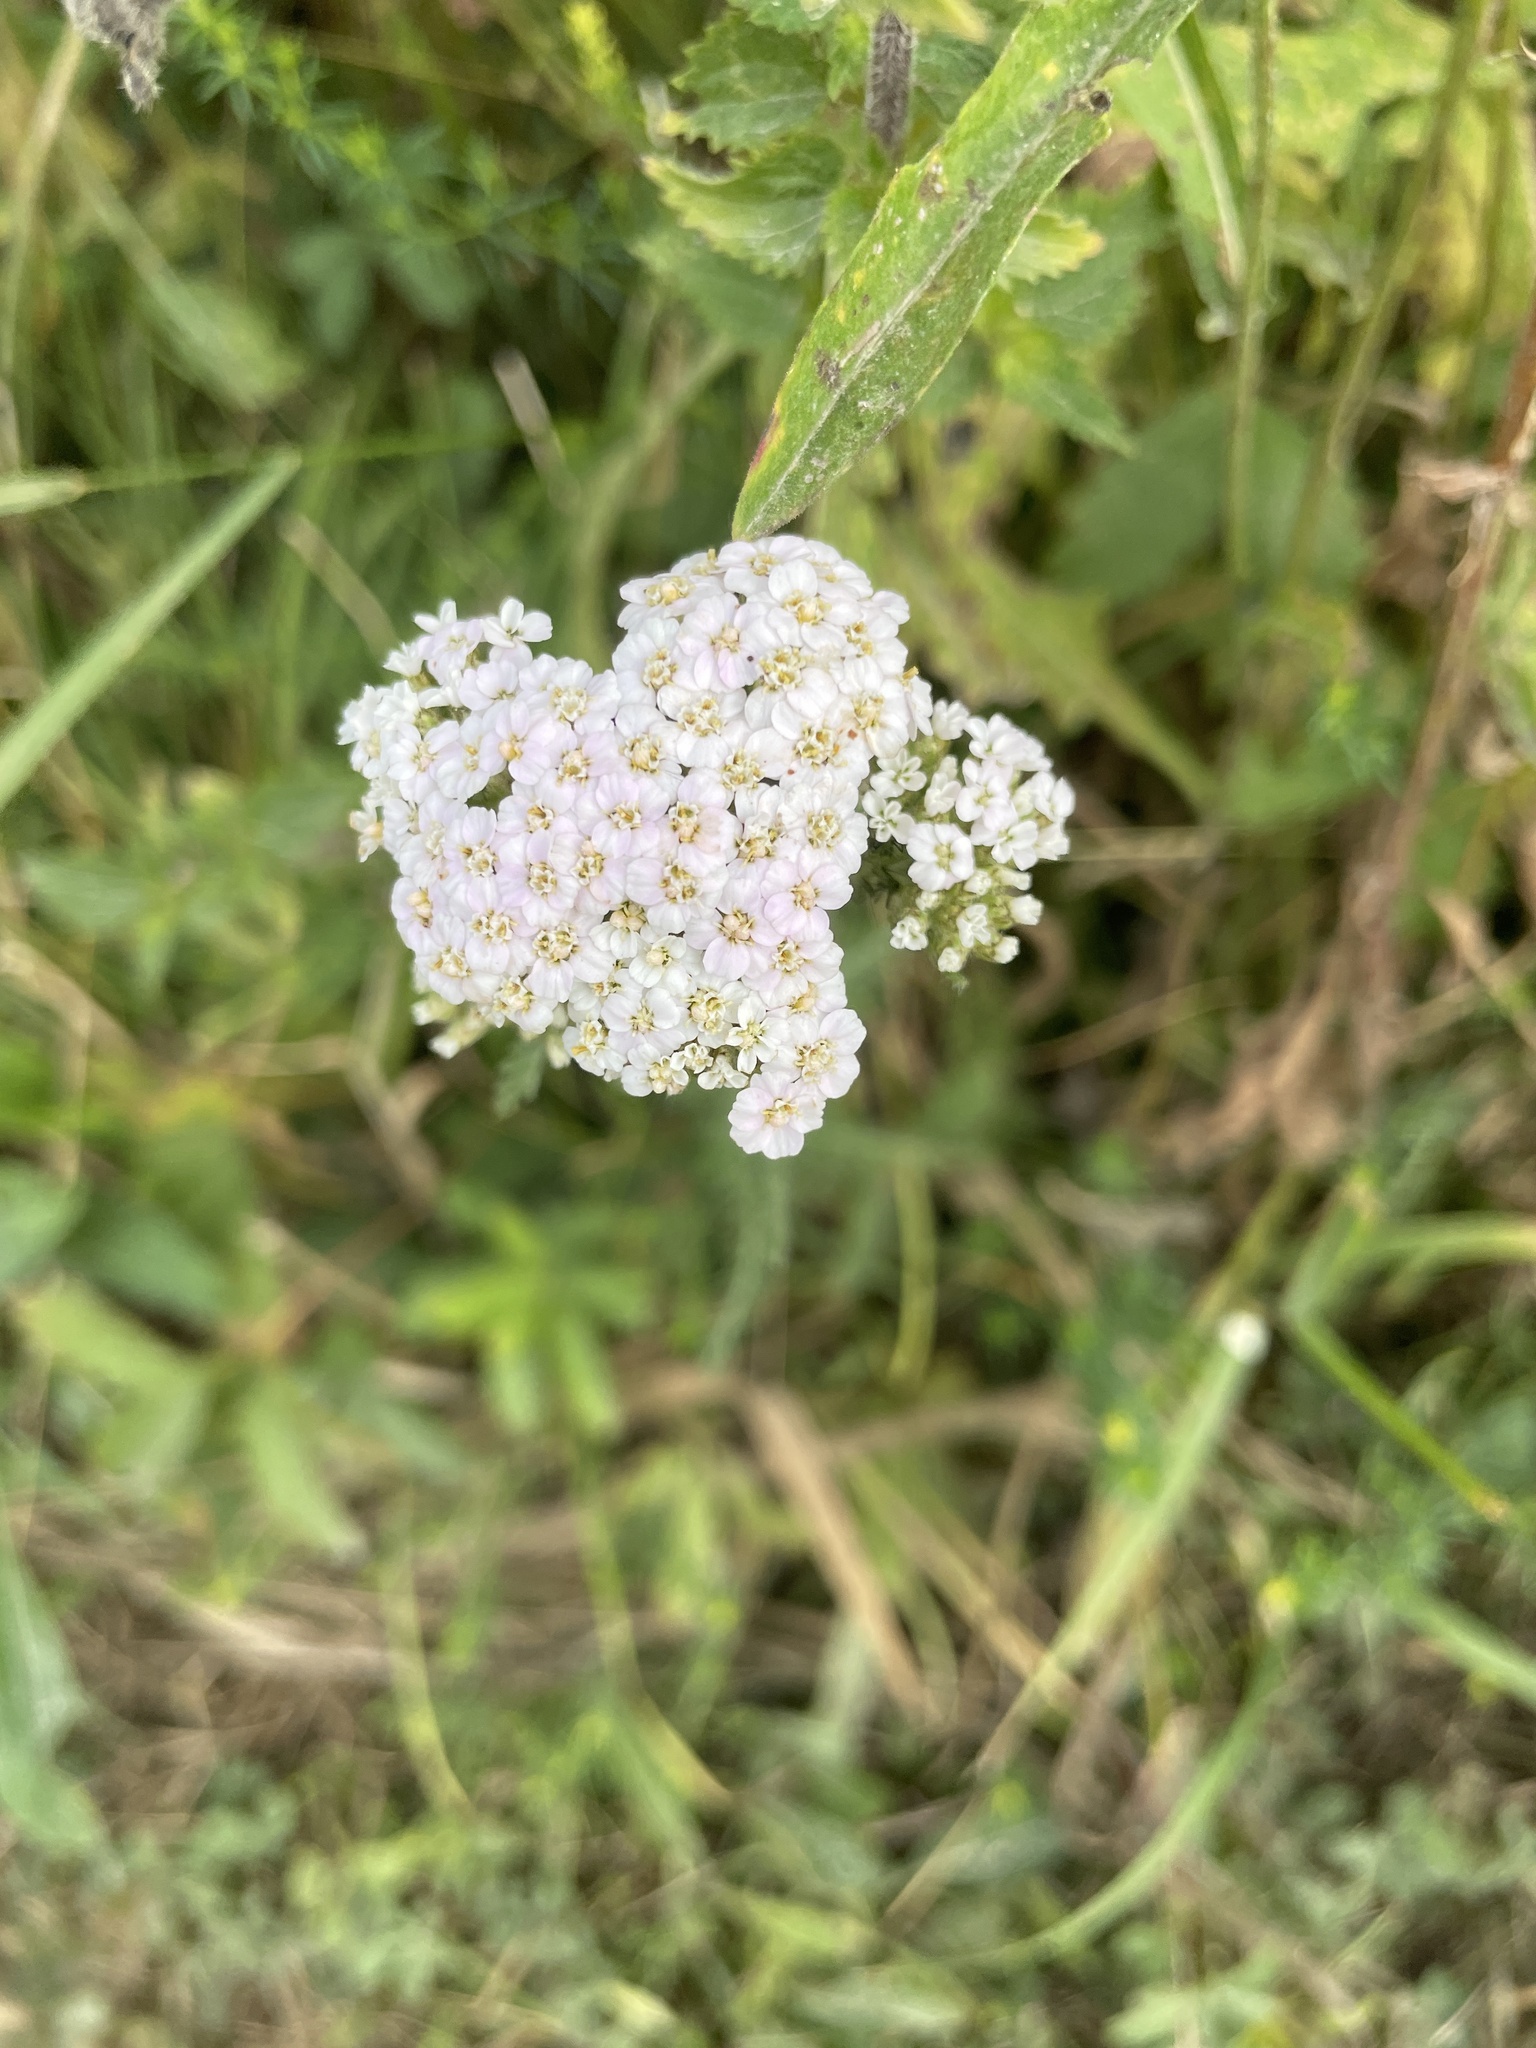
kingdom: Plantae
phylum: Tracheophyta
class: Magnoliopsida
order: Asterales
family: Asteraceae
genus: Achillea
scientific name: Achillea millefolium
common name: Yarrow
